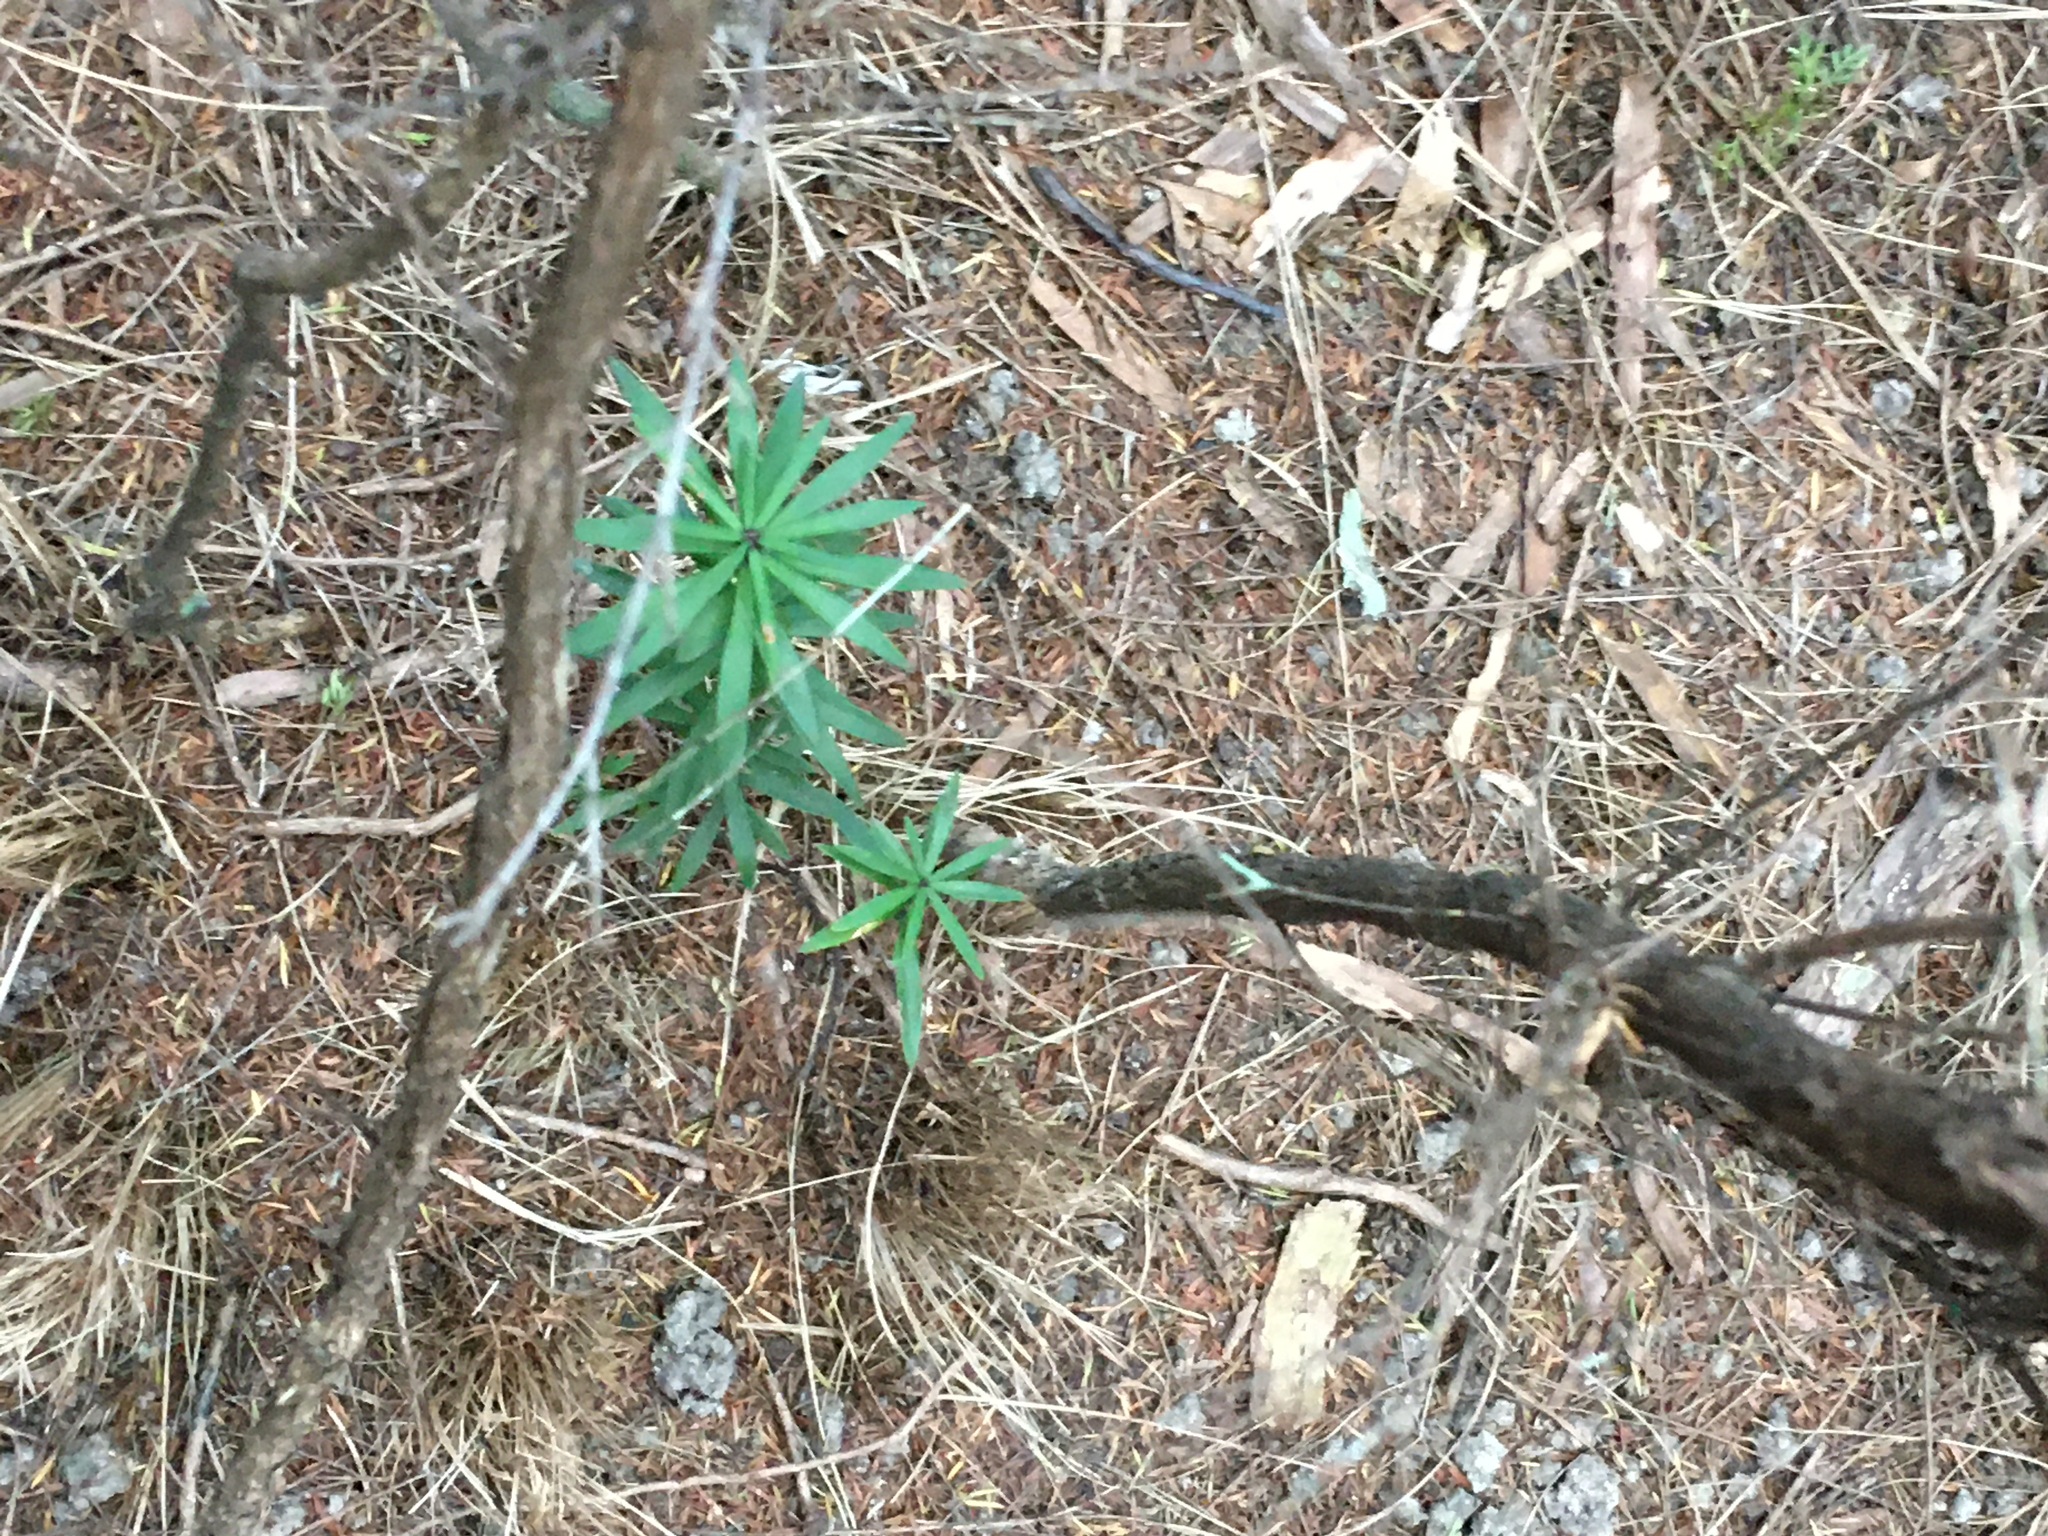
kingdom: Plantae
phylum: Tracheophyta
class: Magnoliopsida
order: Ericales
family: Ericaceae
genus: Leucopogon
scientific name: Leucopogon fasciculatus
